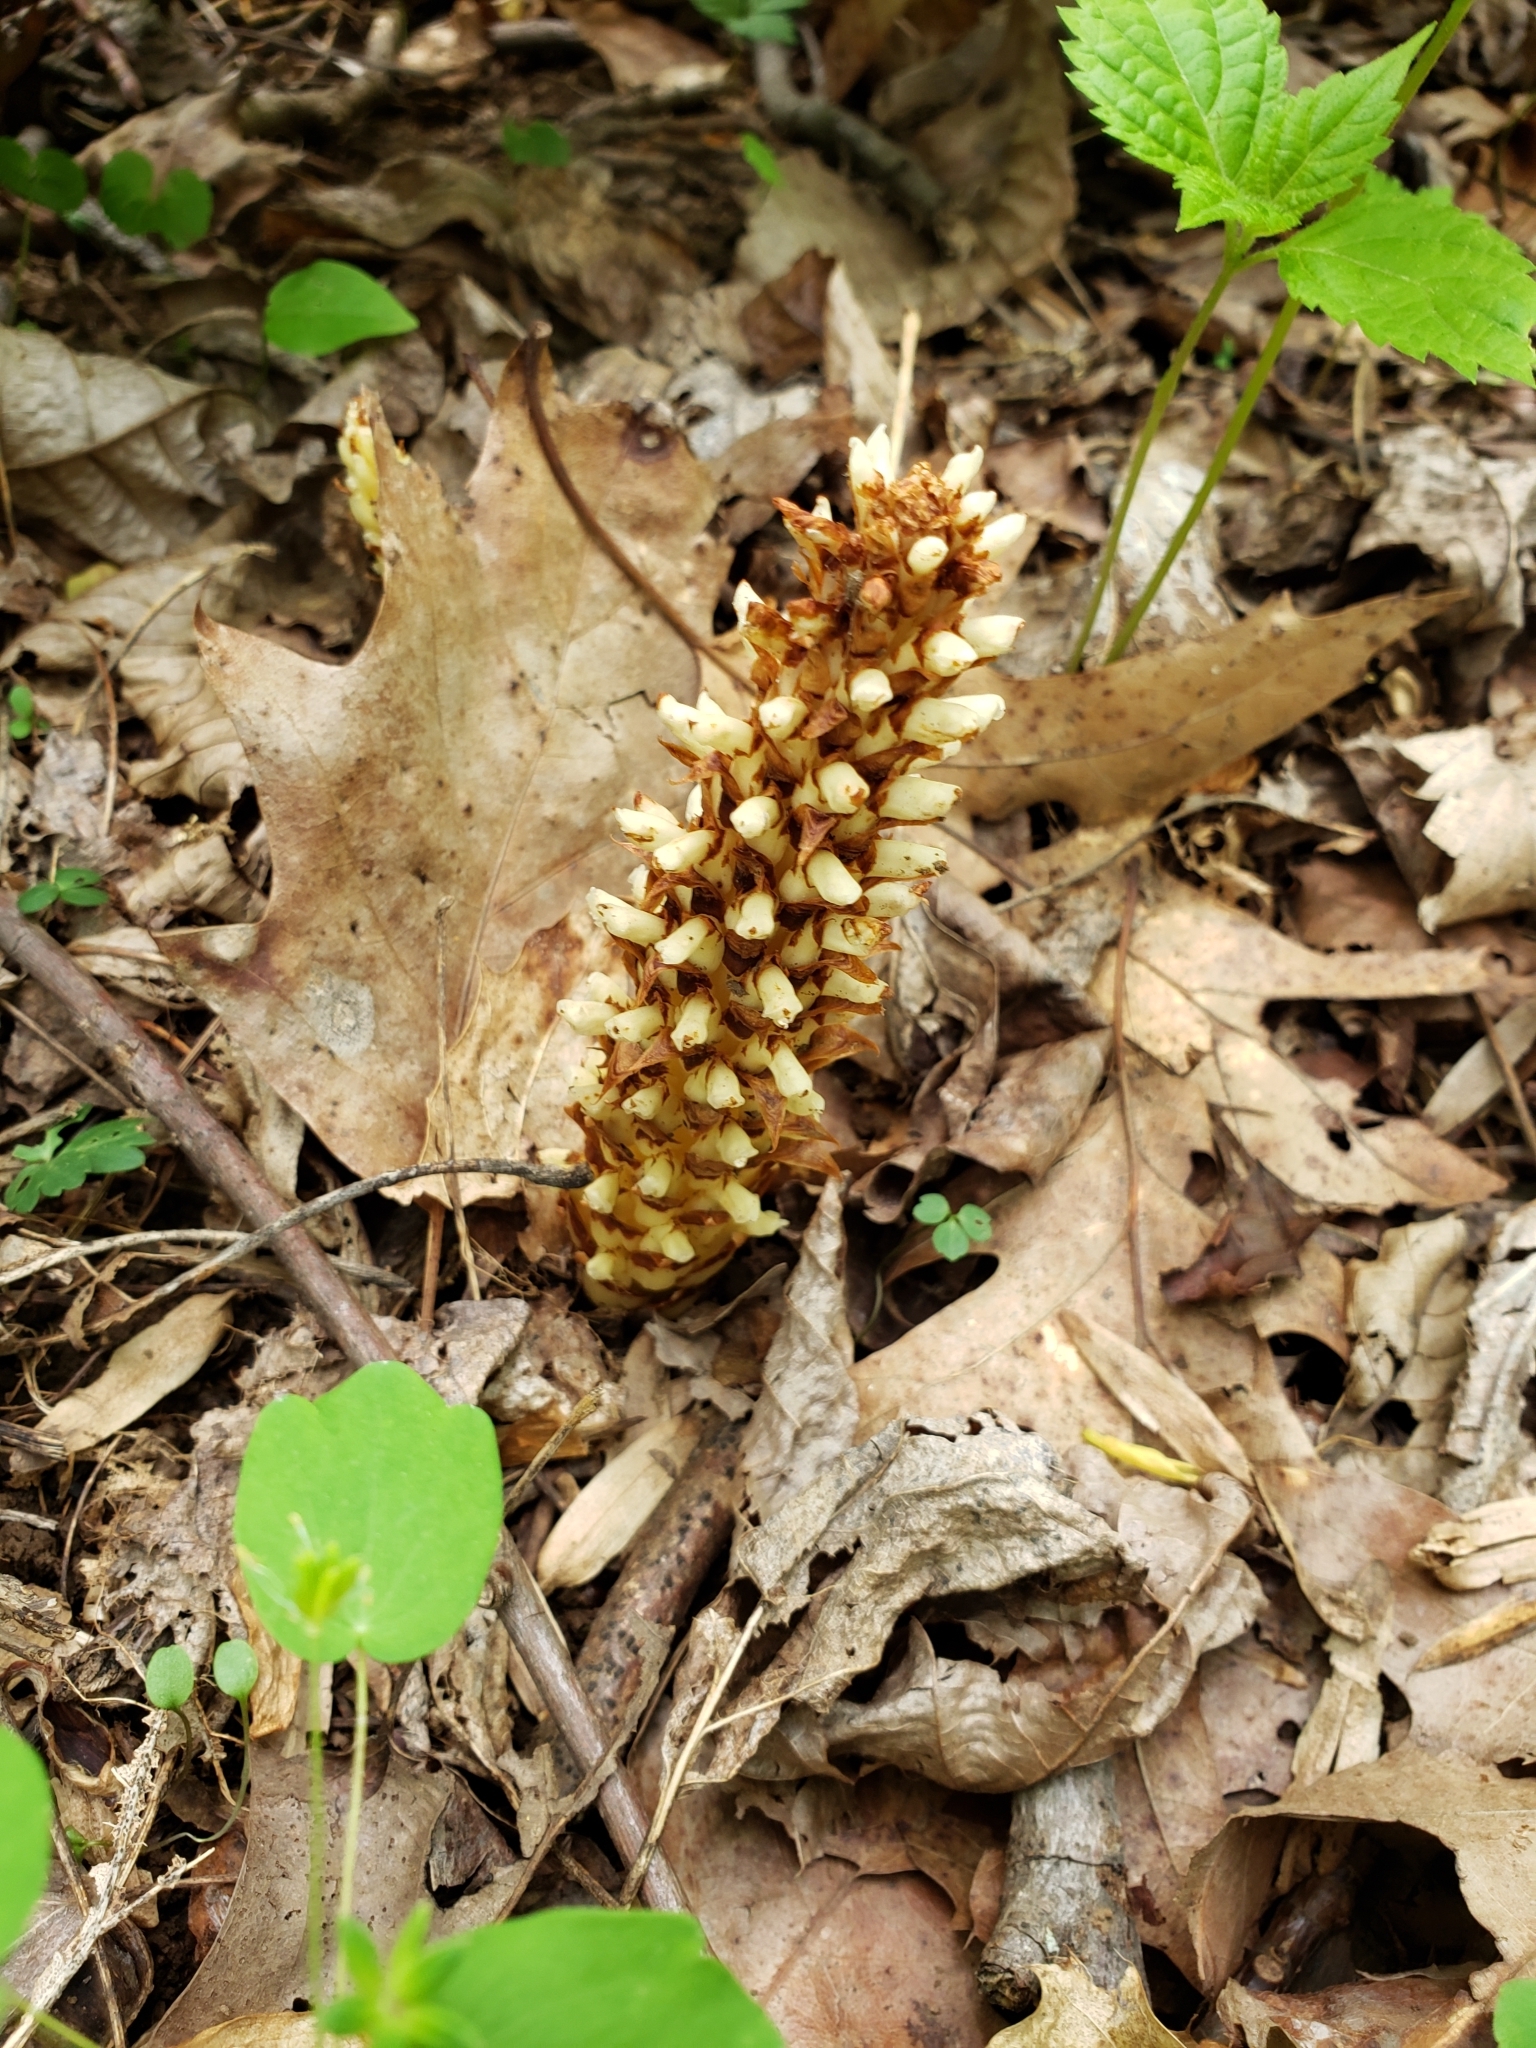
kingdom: Plantae
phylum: Tracheophyta
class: Magnoliopsida
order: Lamiales
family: Orobanchaceae
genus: Conopholis
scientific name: Conopholis americana
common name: American cancer-root
